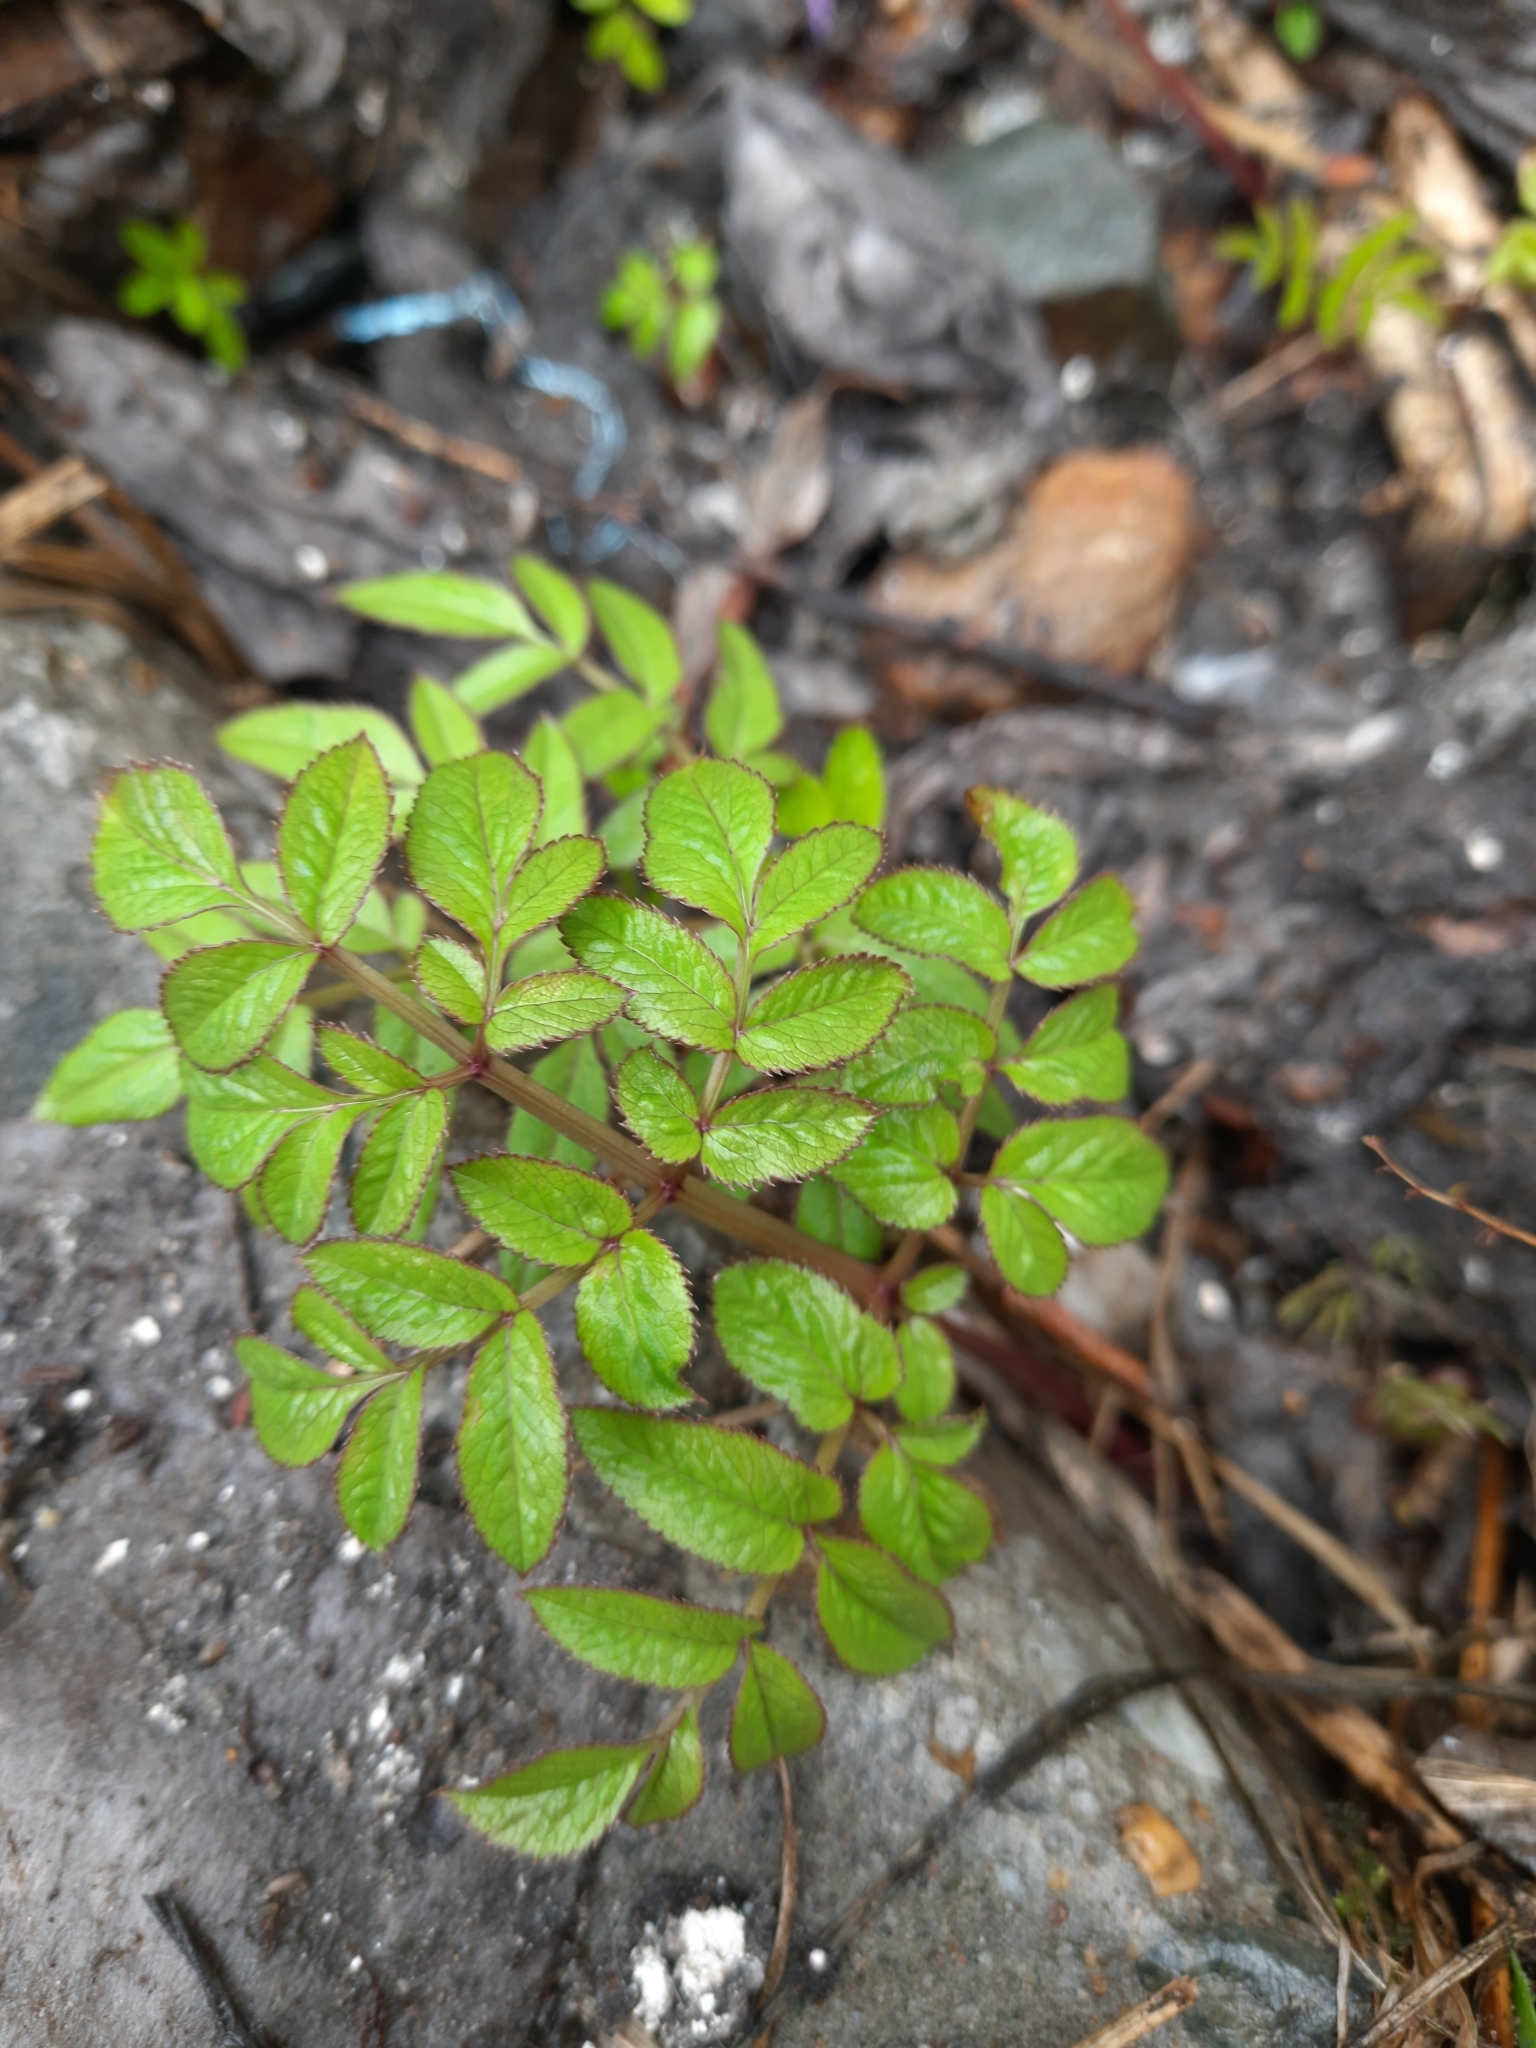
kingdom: Plantae
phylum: Tracheophyta
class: Magnoliopsida
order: Apiales
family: Apiaceae
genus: Angelica
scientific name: Angelica sylvestris
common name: Wild angelica
